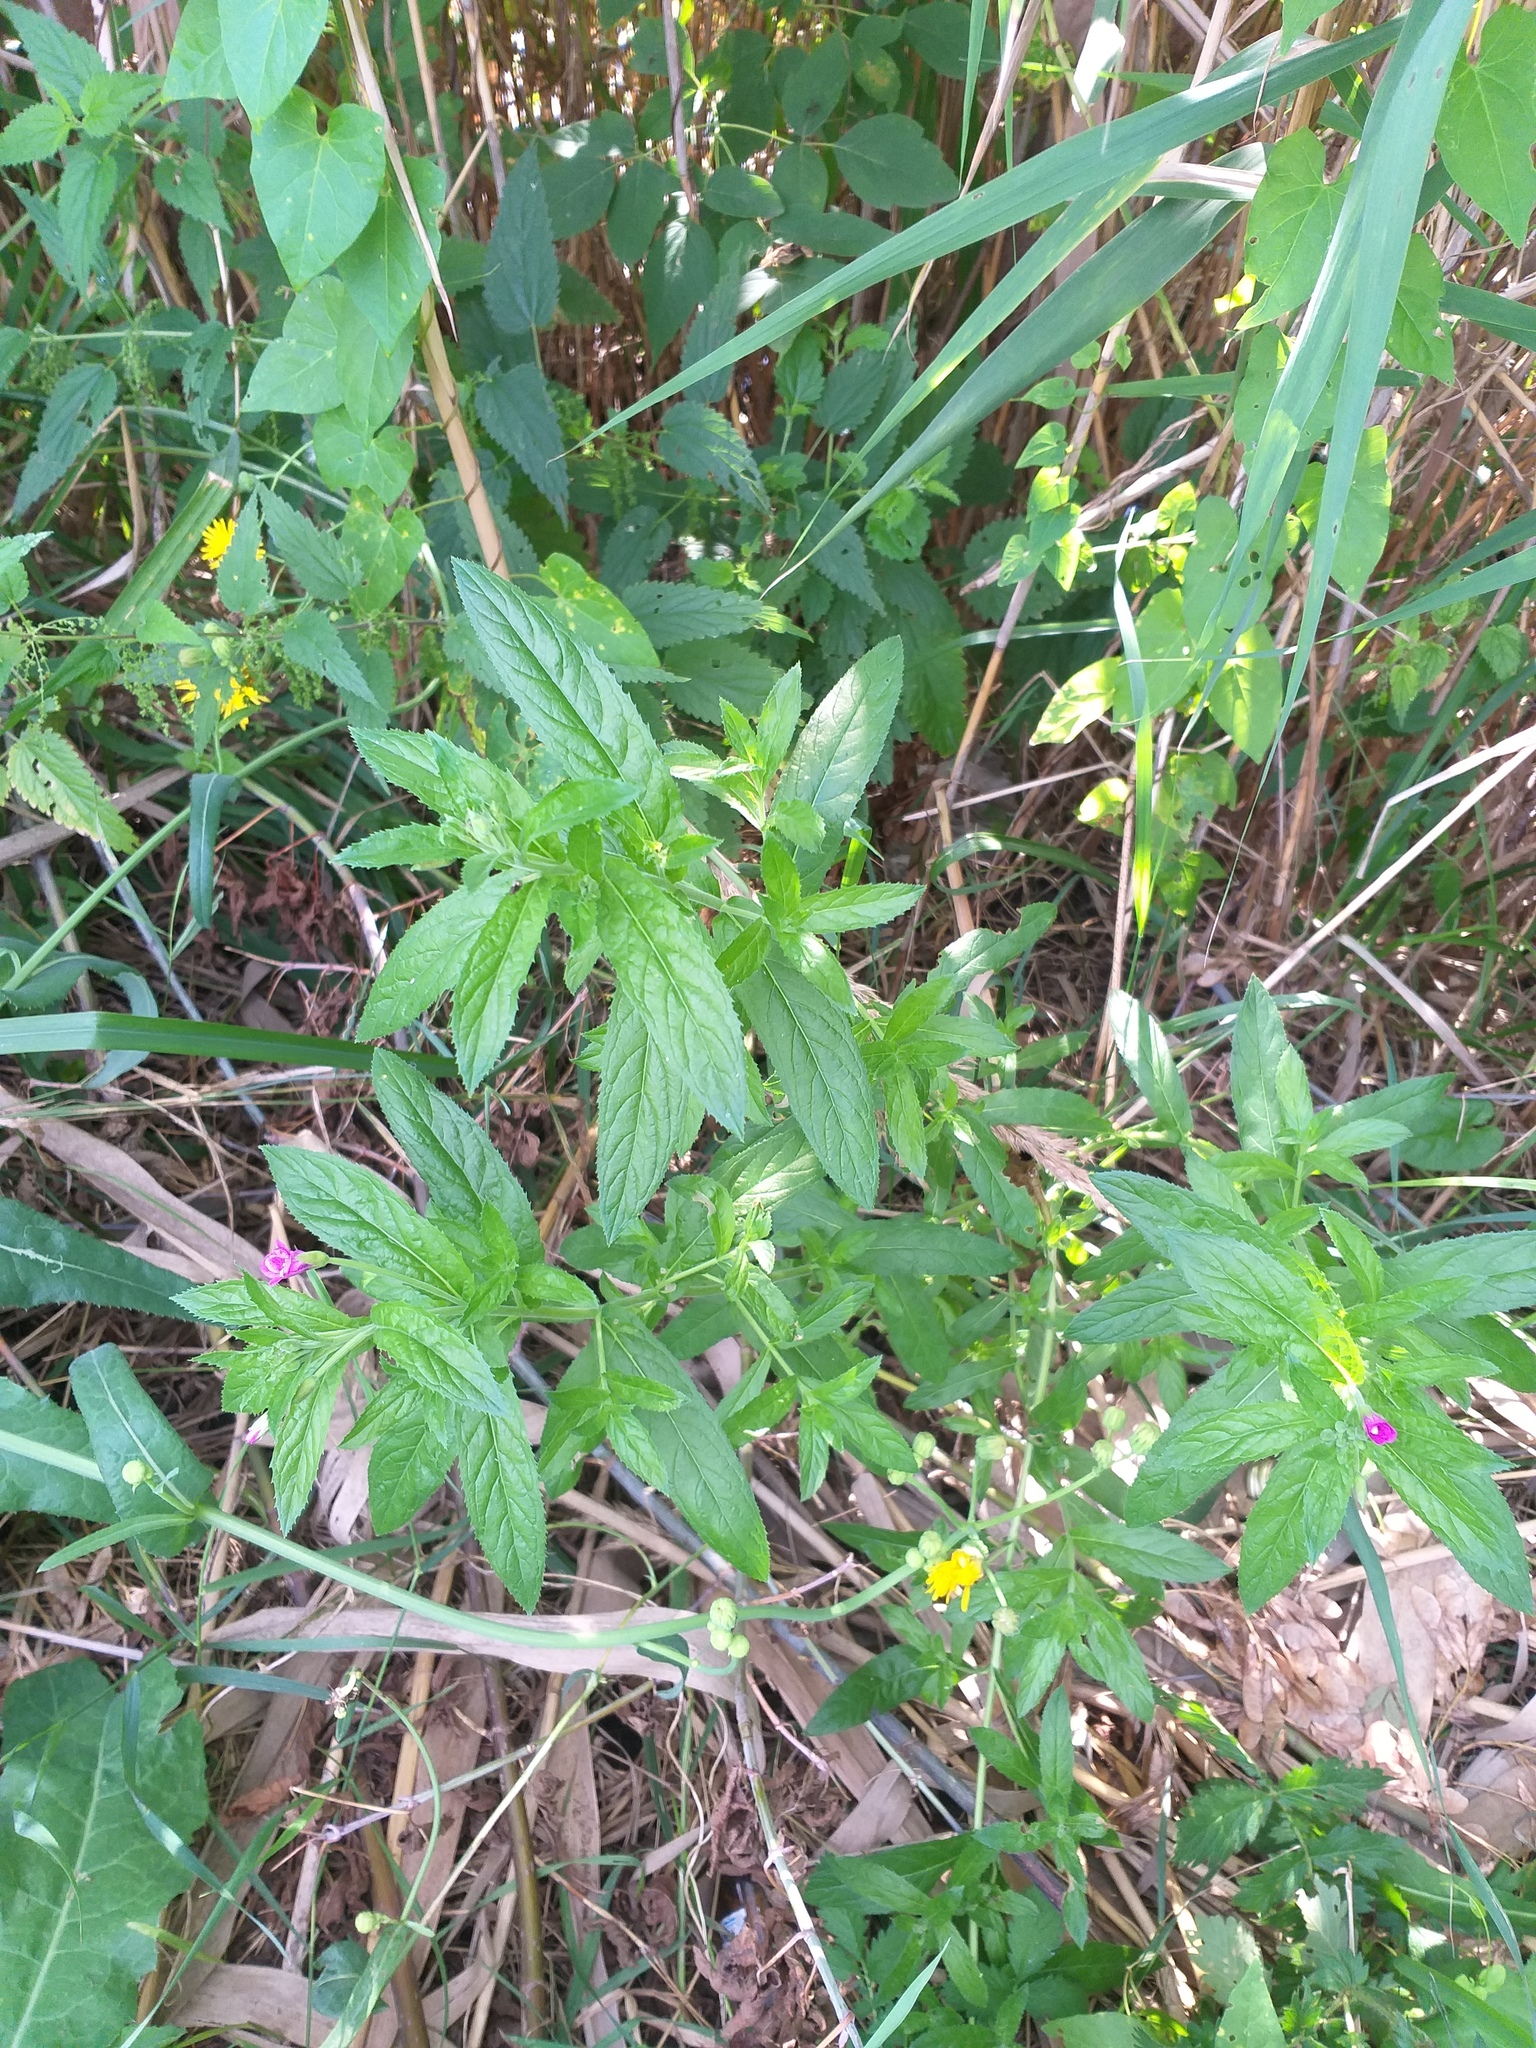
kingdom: Plantae
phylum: Tracheophyta
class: Magnoliopsida
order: Myrtales
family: Onagraceae
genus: Epilobium
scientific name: Epilobium hirsutum
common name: Great willowherb
